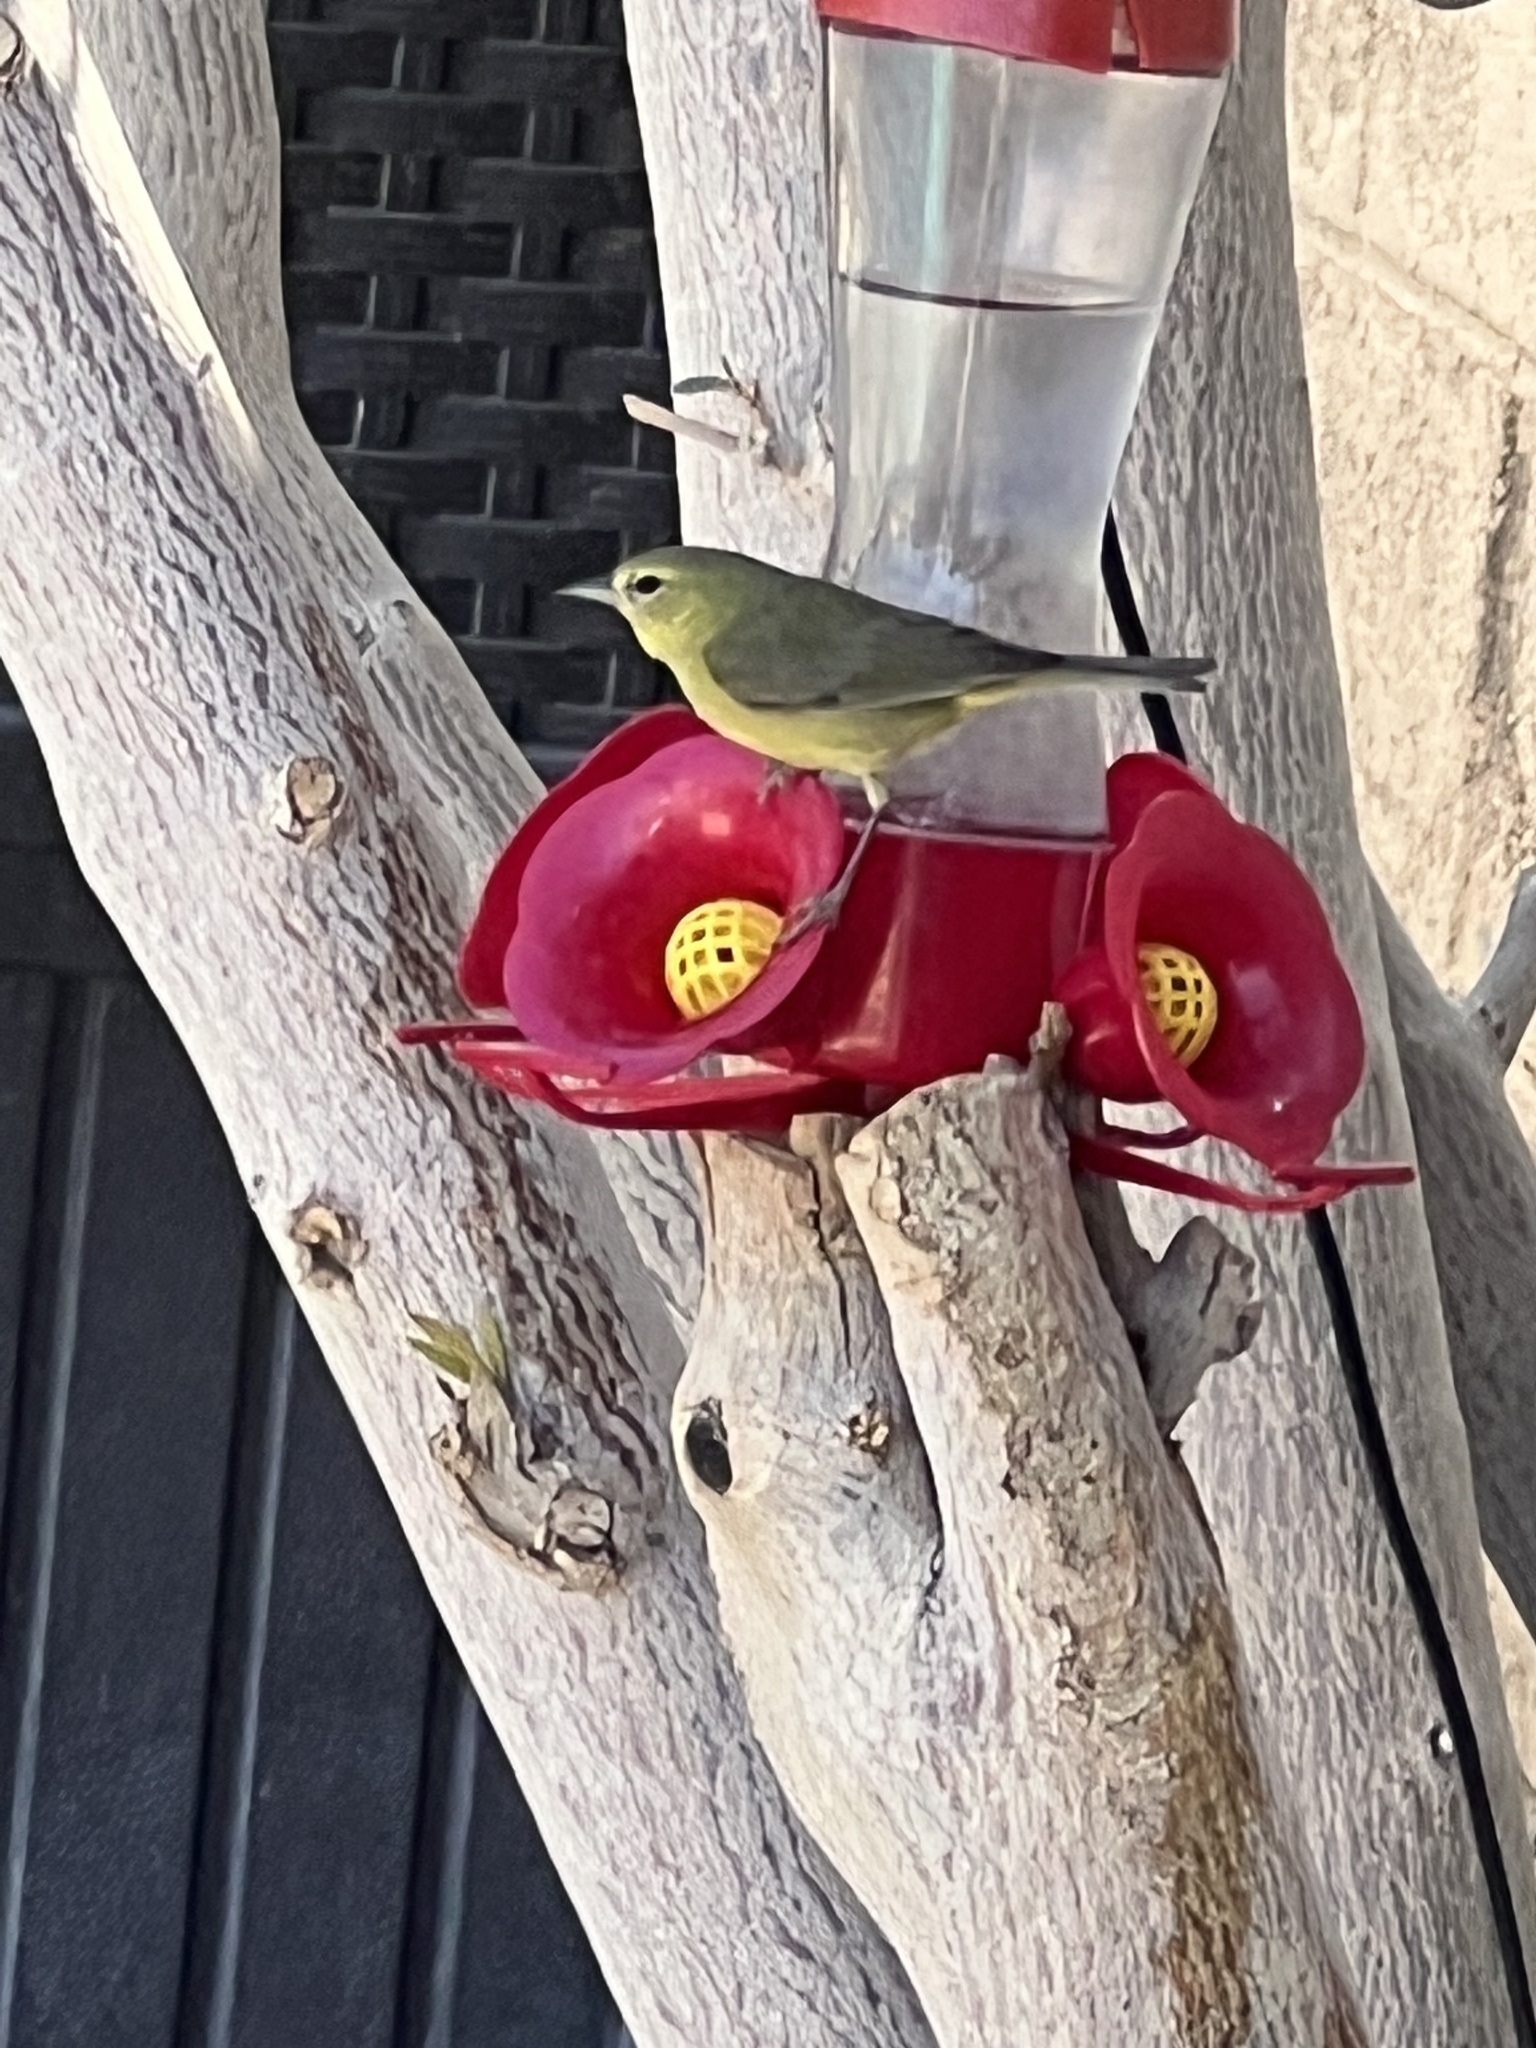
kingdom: Animalia
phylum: Chordata
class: Aves
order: Passeriformes
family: Parulidae
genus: Leiothlypis
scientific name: Leiothlypis celata
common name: Orange-crowned warbler
